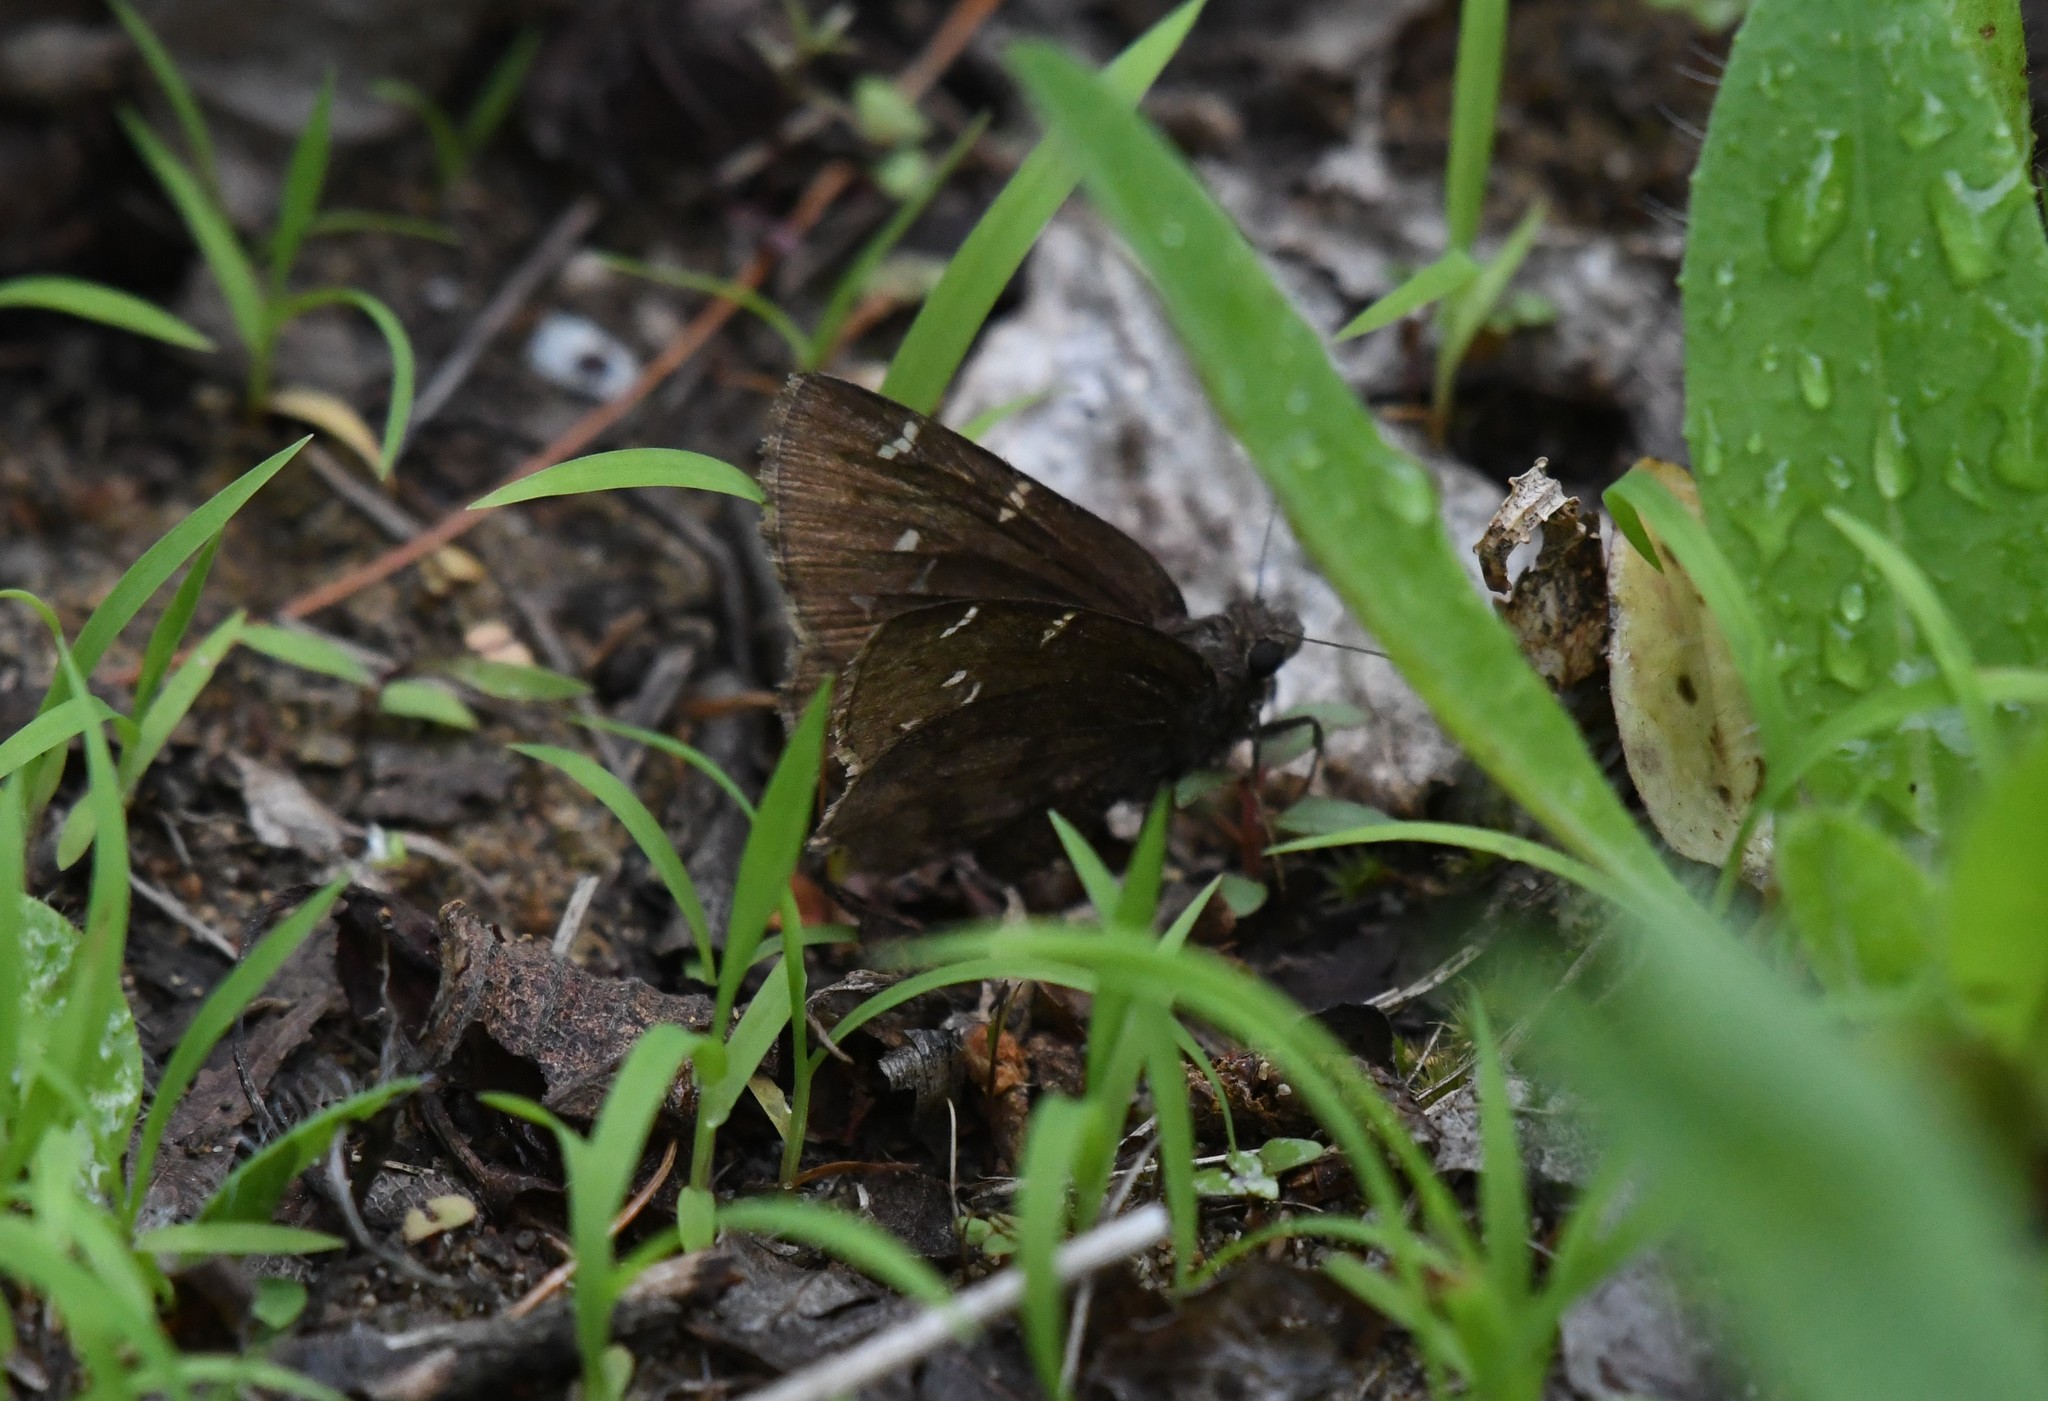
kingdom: Animalia
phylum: Arthropoda
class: Insecta
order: Lepidoptera
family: Hesperiidae
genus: Thorybes
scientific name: Thorybes pylades
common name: Northern cloudywing
